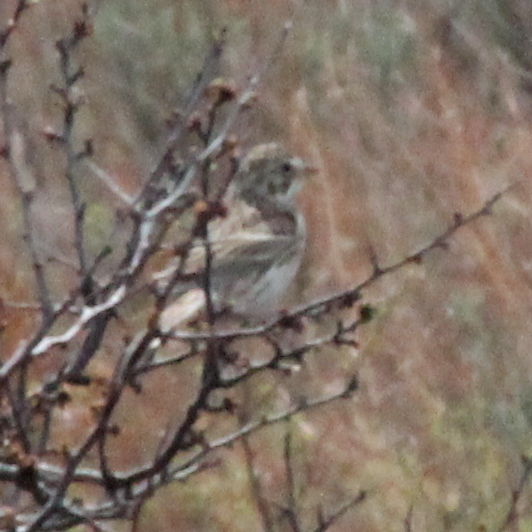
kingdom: Animalia
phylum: Chordata
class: Aves
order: Passeriformes
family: Passerellidae
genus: Pooecetes
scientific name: Pooecetes gramineus
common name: Vesper sparrow
